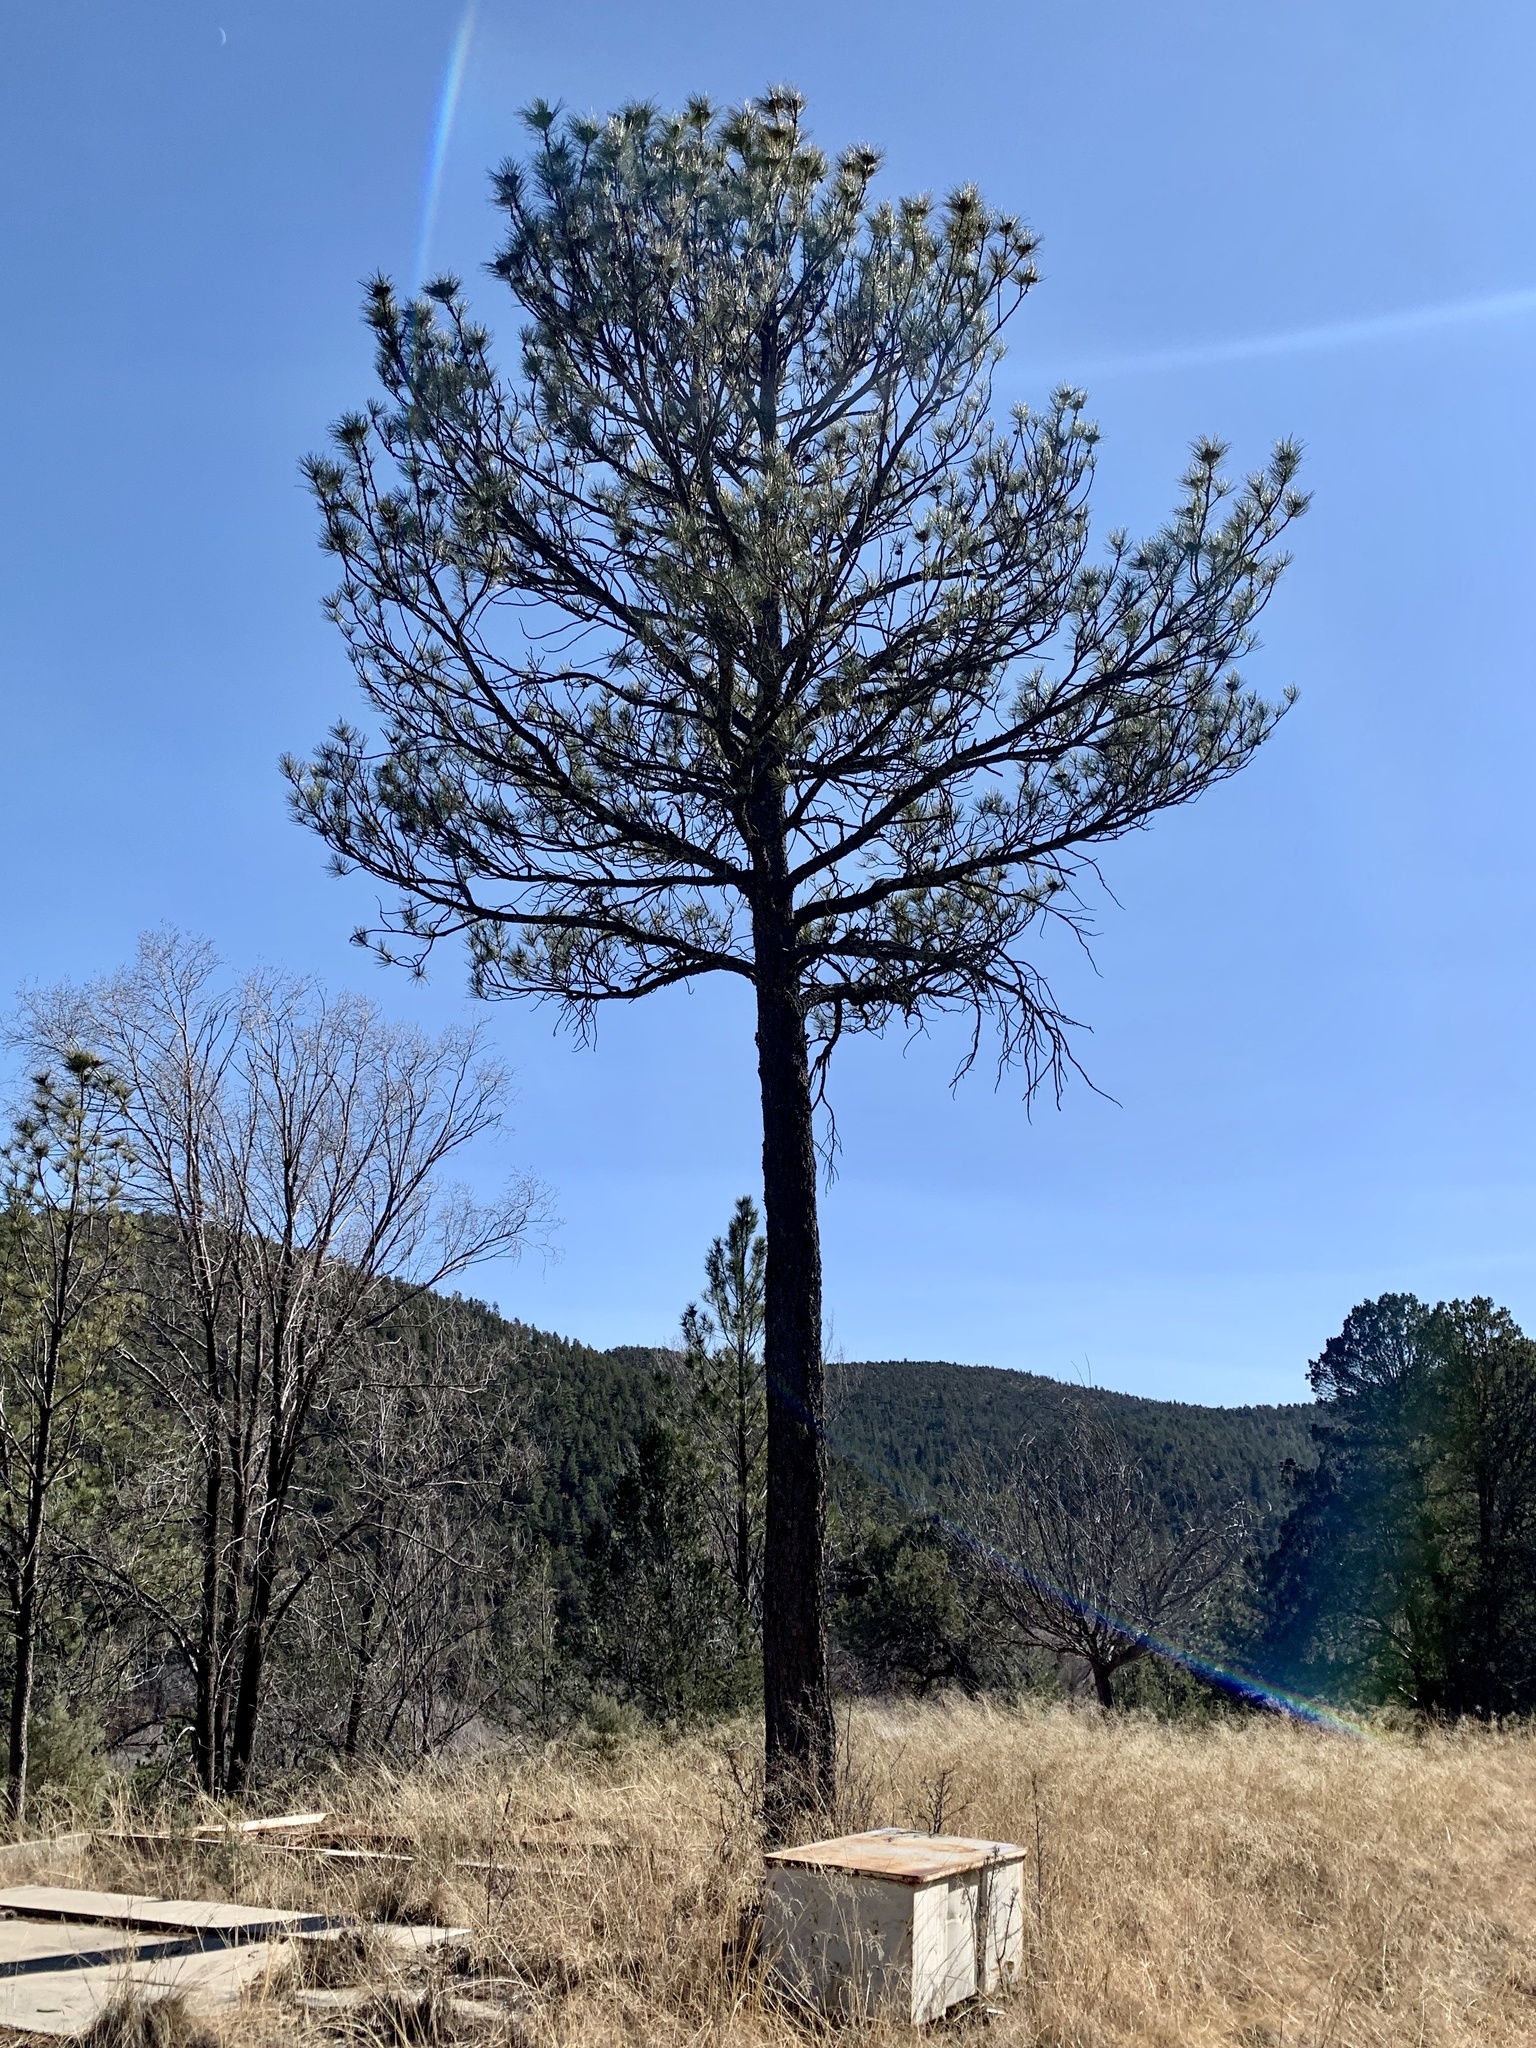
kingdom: Plantae
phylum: Tracheophyta
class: Pinopsida
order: Pinales
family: Pinaceae
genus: Pinus
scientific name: Pinus ponderosa
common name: Western yellow-pine
